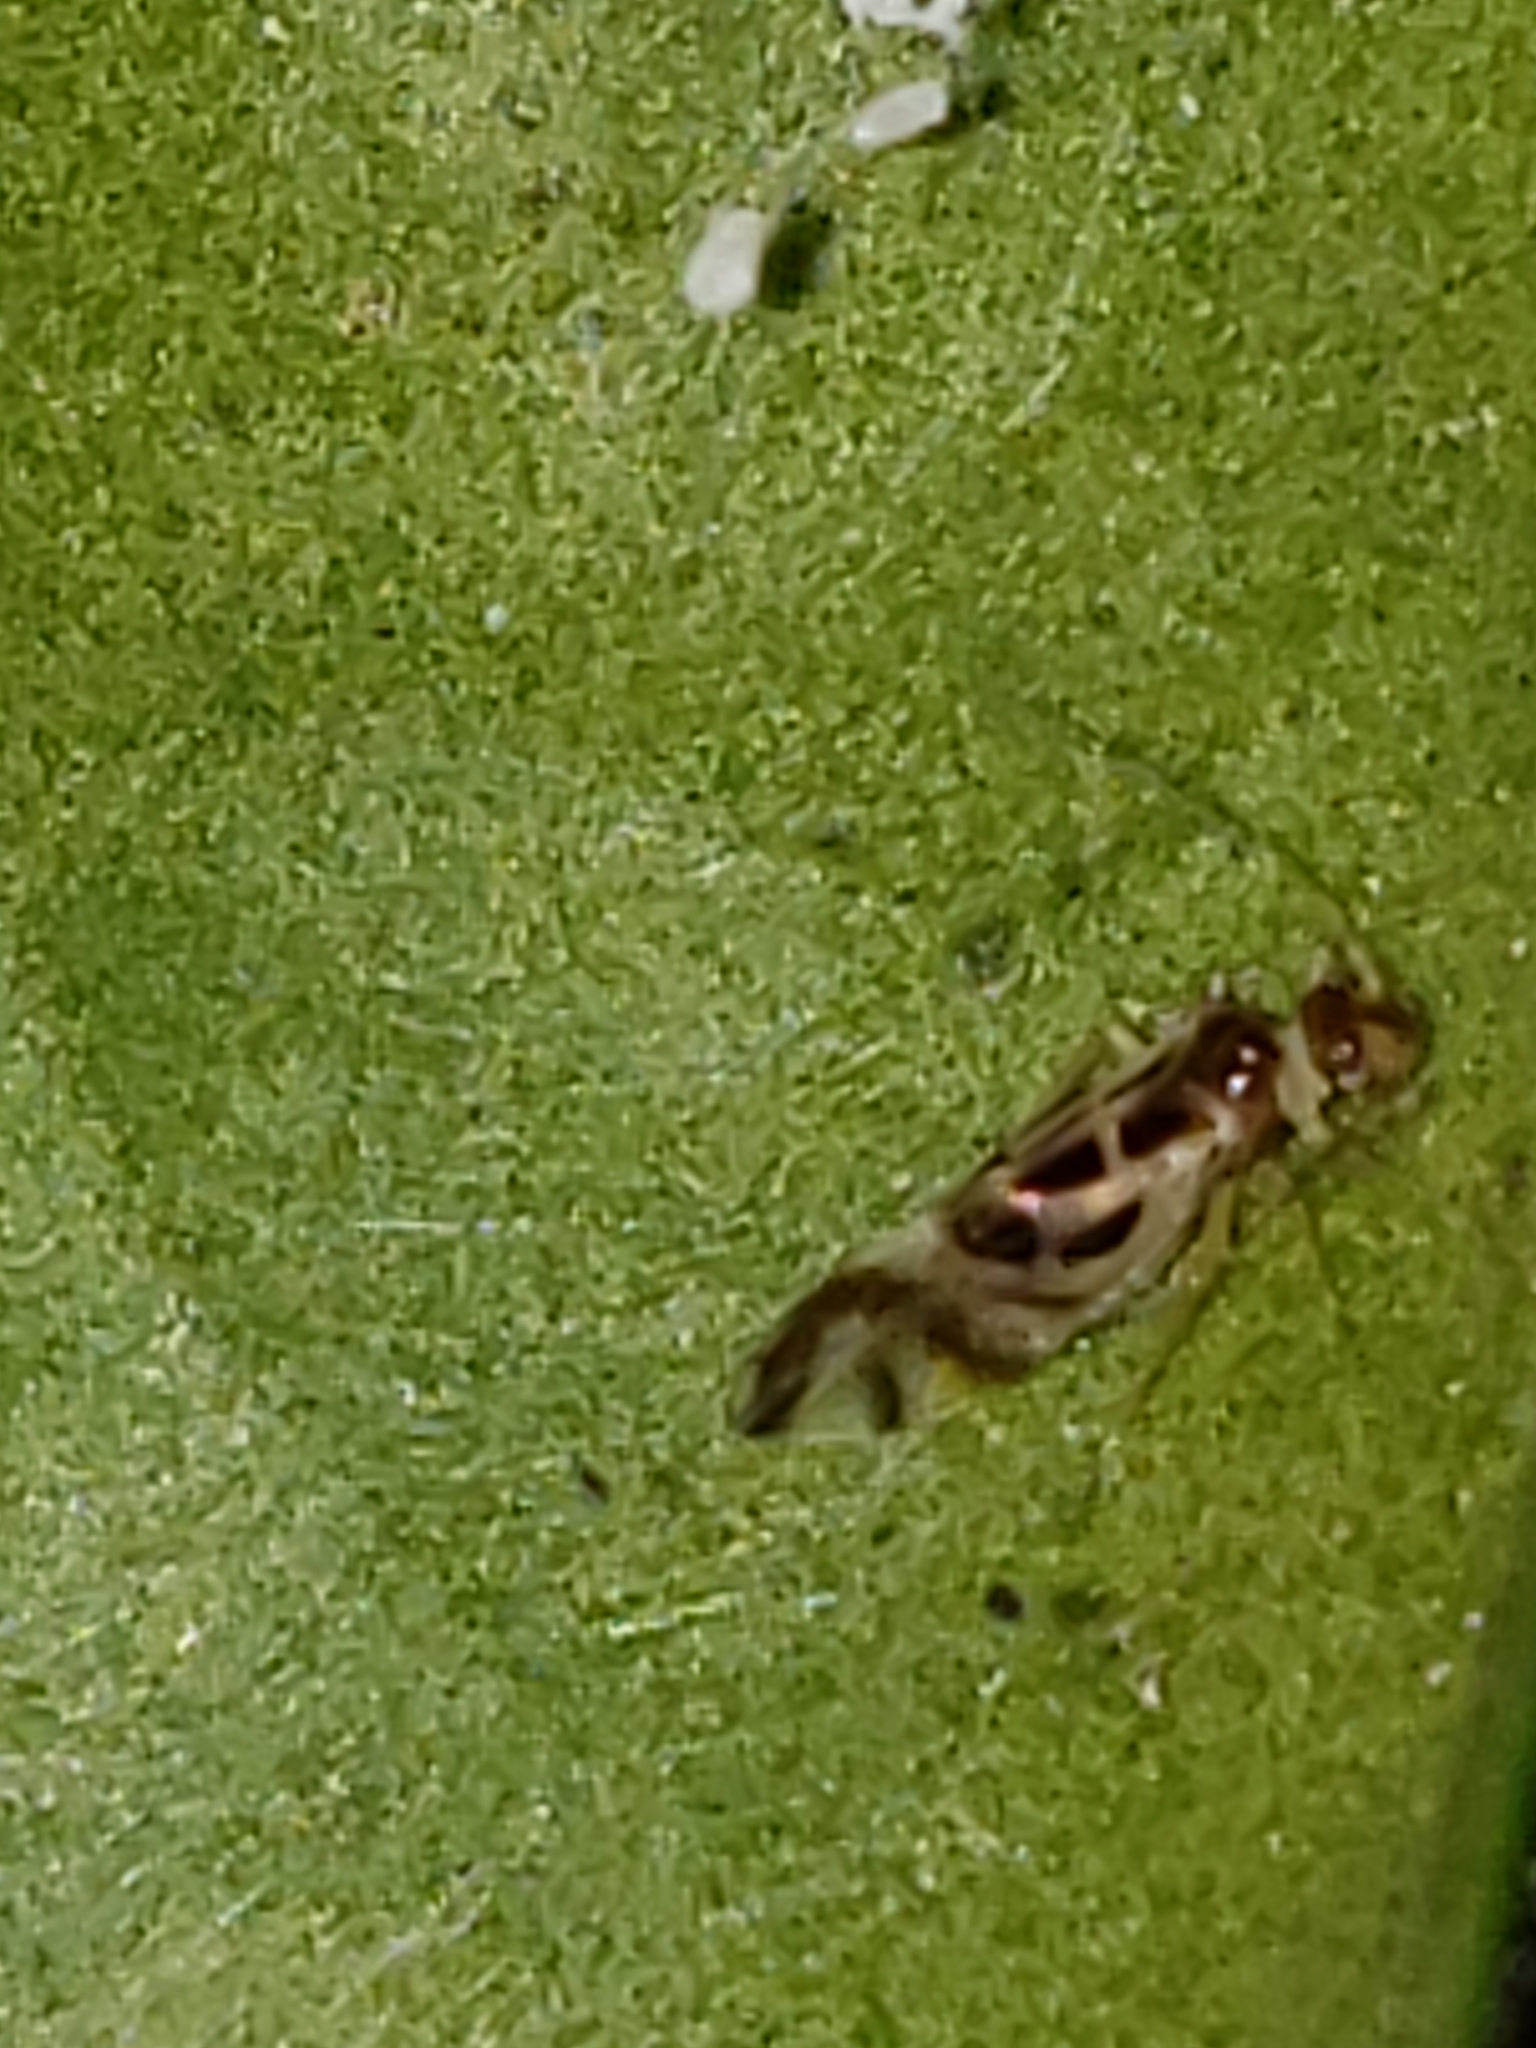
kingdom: Animalia
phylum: Arthropoda
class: Insecta
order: Psocodea
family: Stenopsocidae
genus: Graphopsocus
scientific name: Graphopsocus cruciatus
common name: Lizard bark louse
